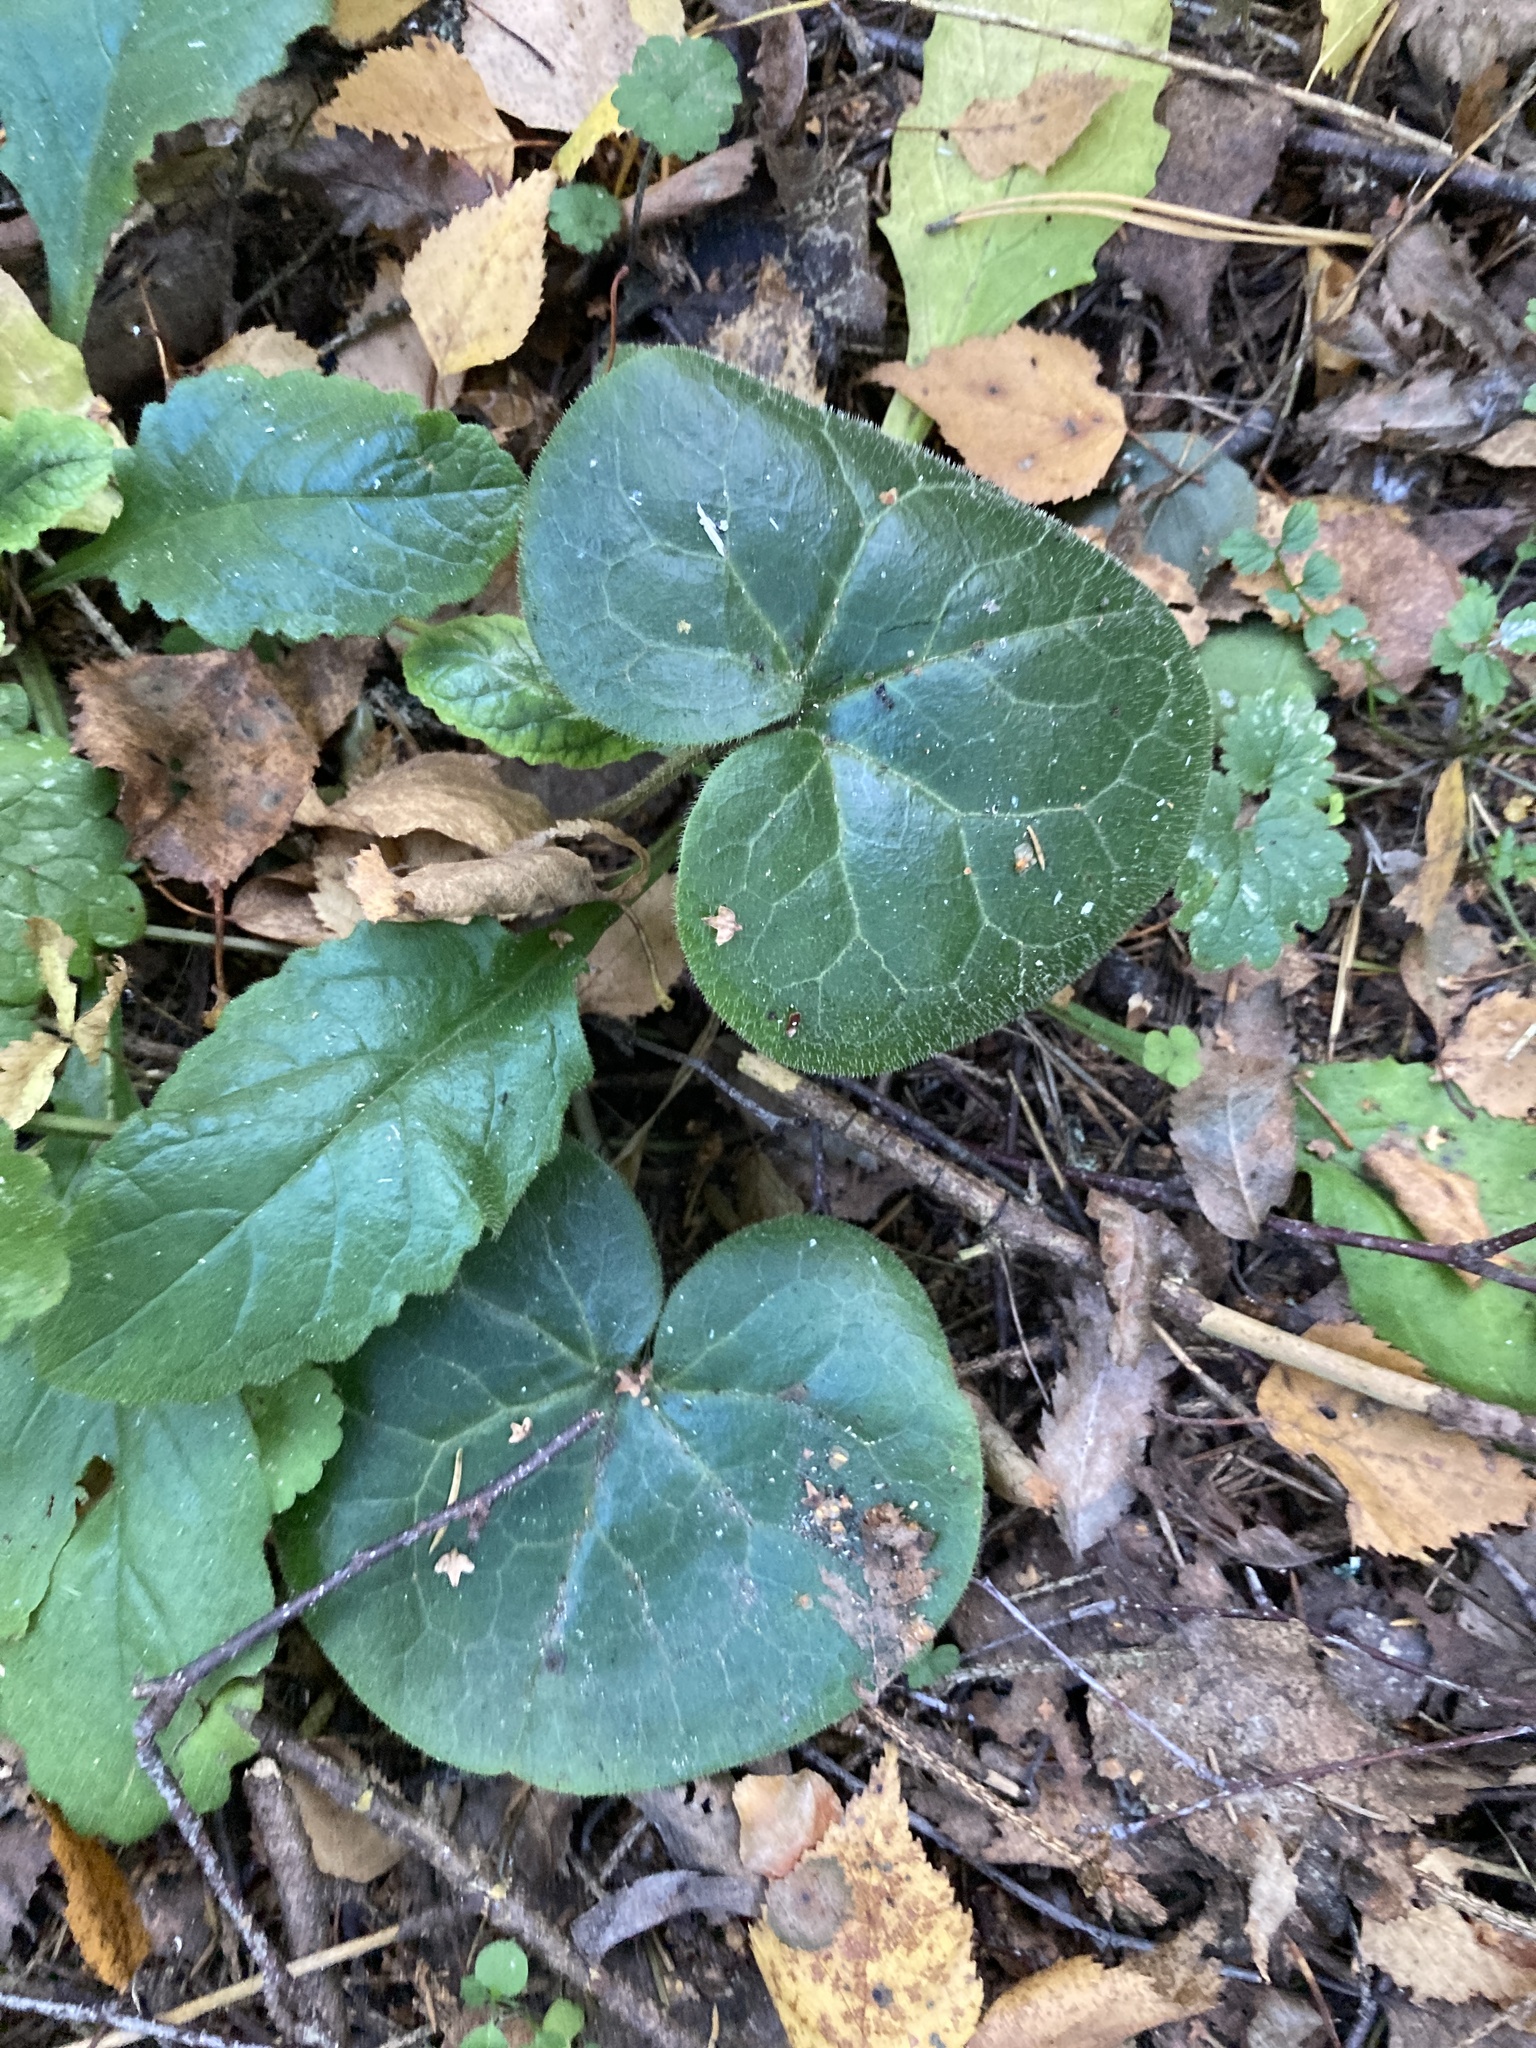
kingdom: Plantae
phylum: Tracheophyta
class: Magnoliopsida
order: Piperales
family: Aristolochiaceae
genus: Asarum
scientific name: Asarum europaeum
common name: Asarabacca
